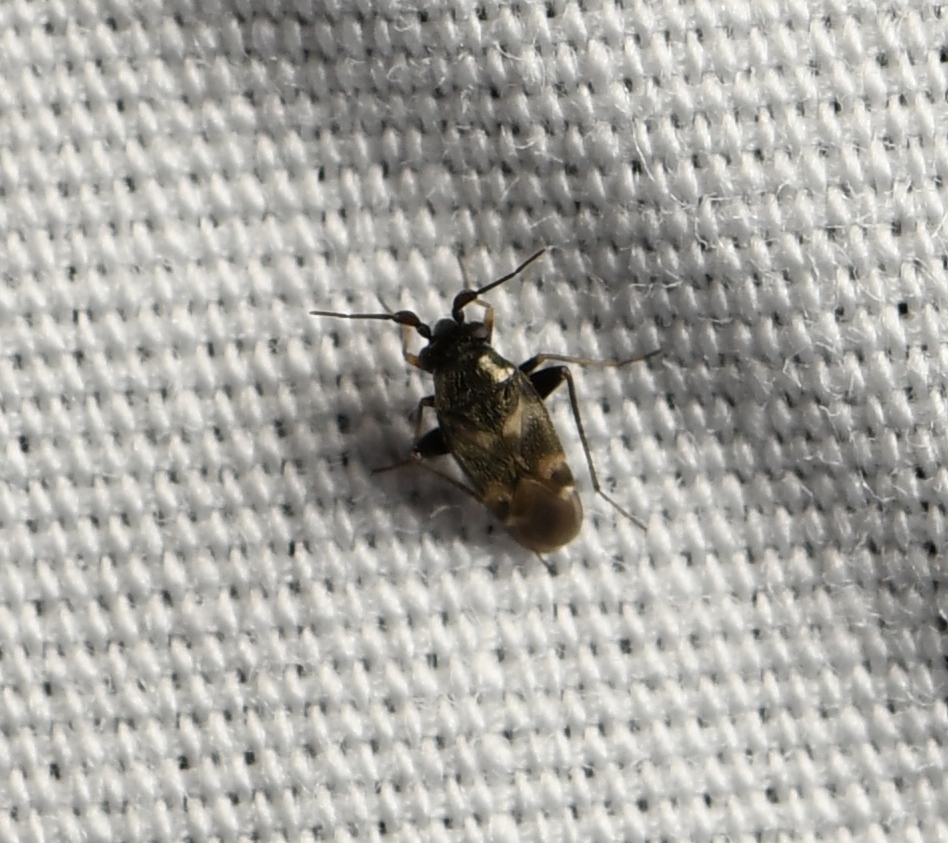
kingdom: Animalia
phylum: Arthropoda
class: Insecta
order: Hemiptera
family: Miridae
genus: Spanagonicus
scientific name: Spanagonicus albofasciatus
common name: Whitemarked fleahopper
